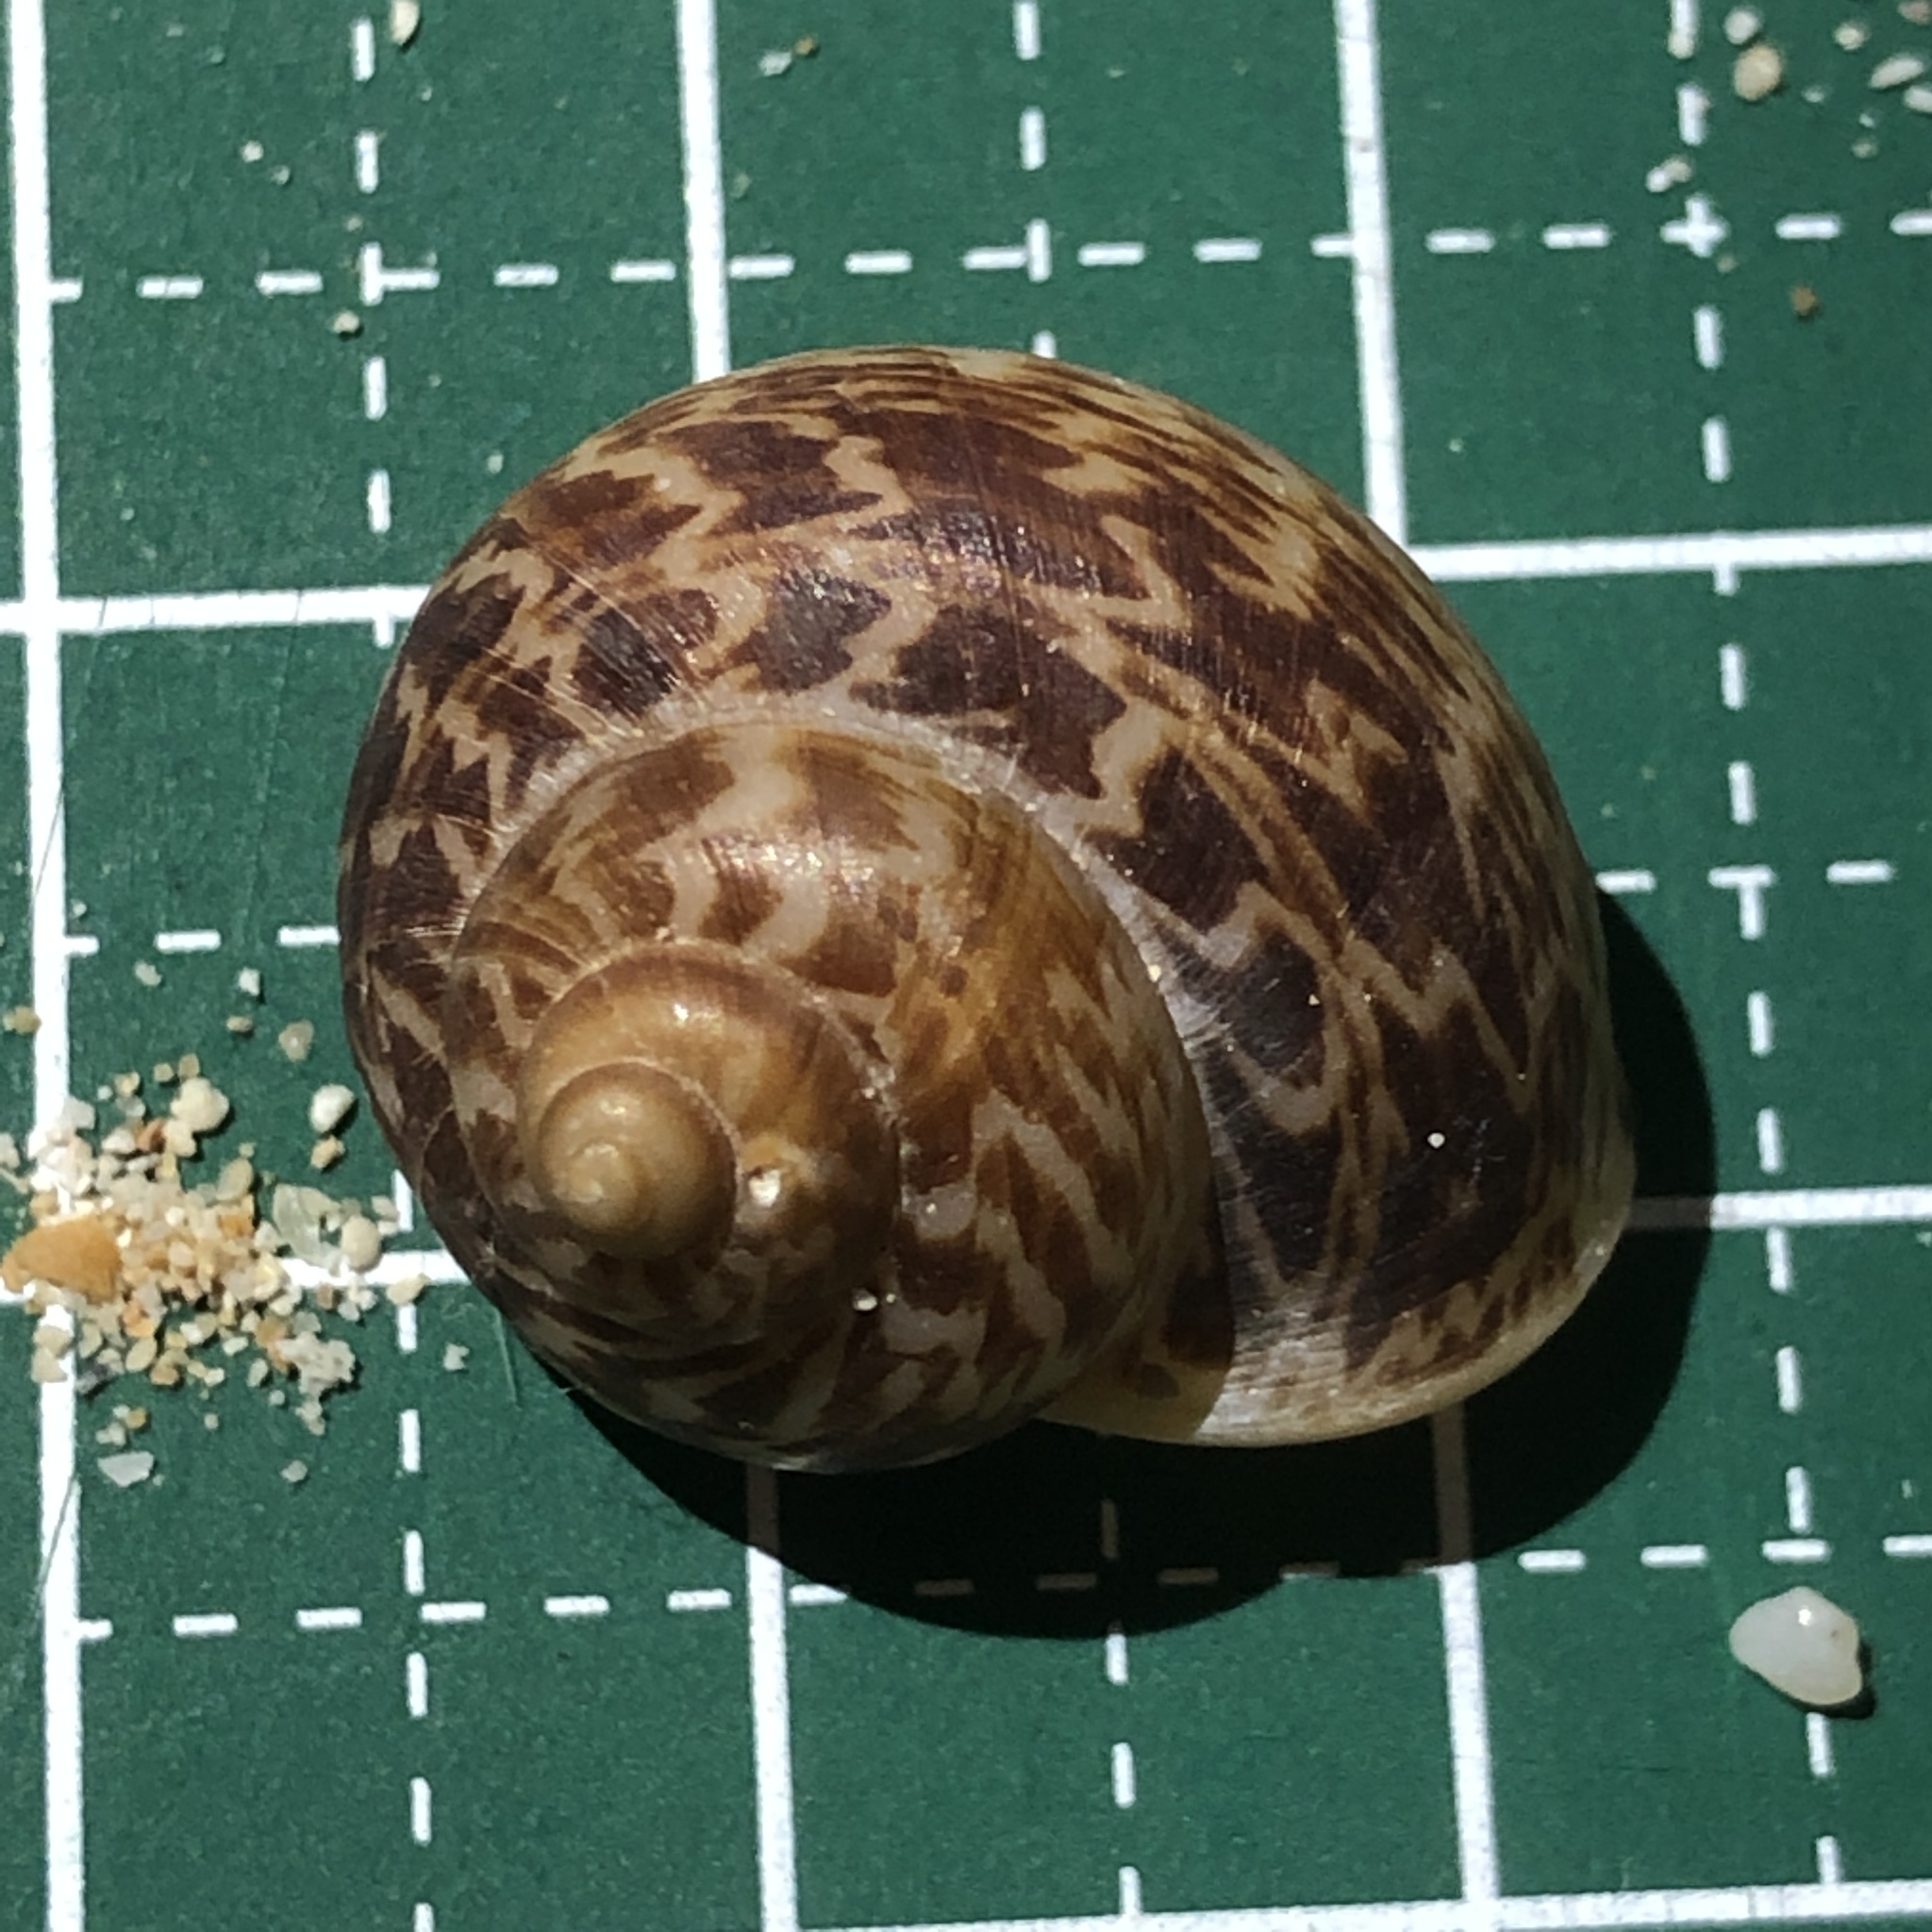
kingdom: Animalia
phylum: Mollusca
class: Gastropoda
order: Architaenioglossa
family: Cyclophoridae
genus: Cyclophorus
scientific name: Cyclophorus turgidus
